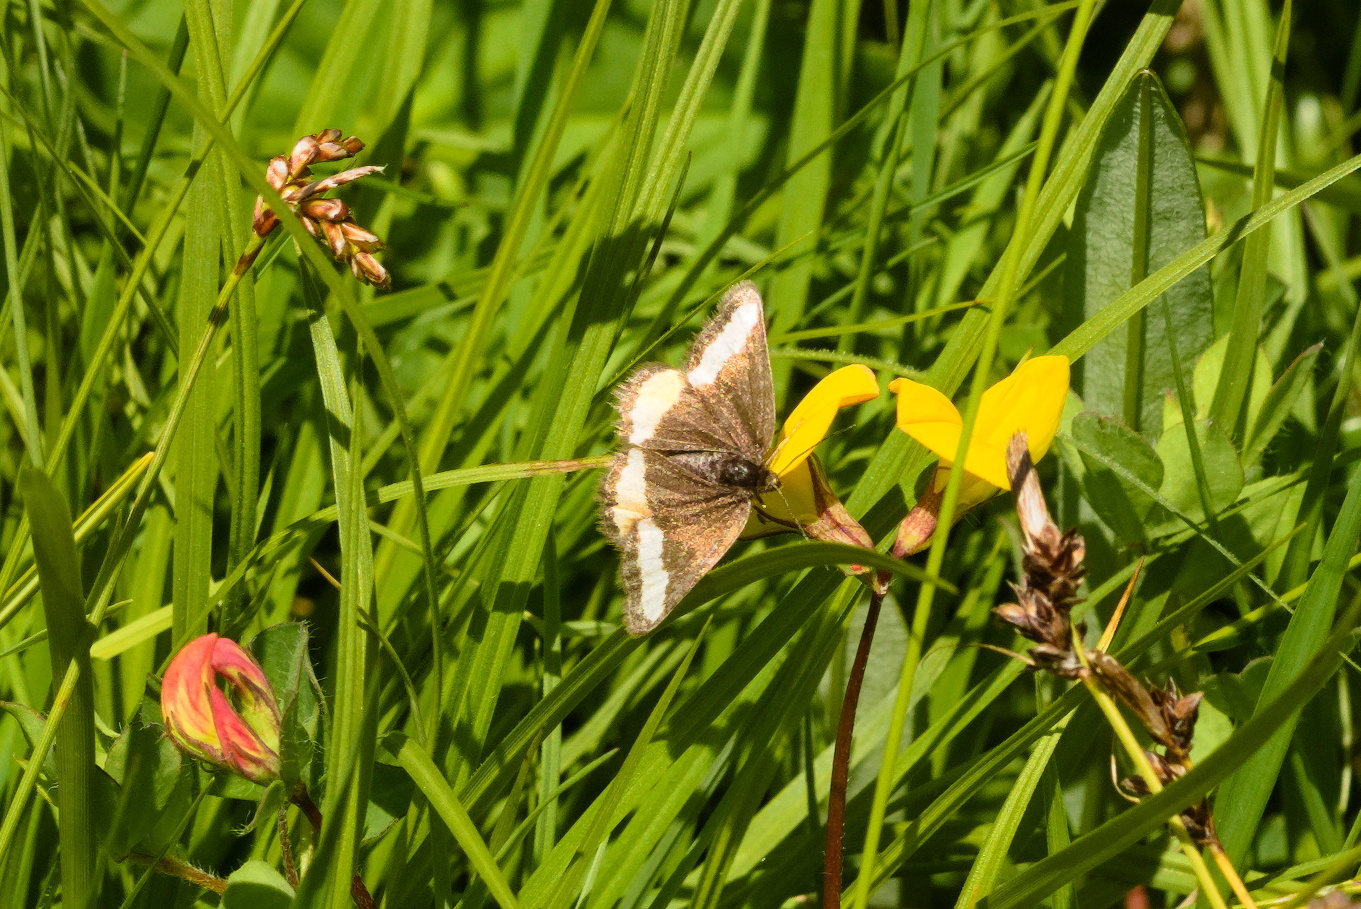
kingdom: Animalia
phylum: Arthropoda
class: Insecta
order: Lepidoptera
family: Geometridae
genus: Psodos
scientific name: Psodos quadrifaria
